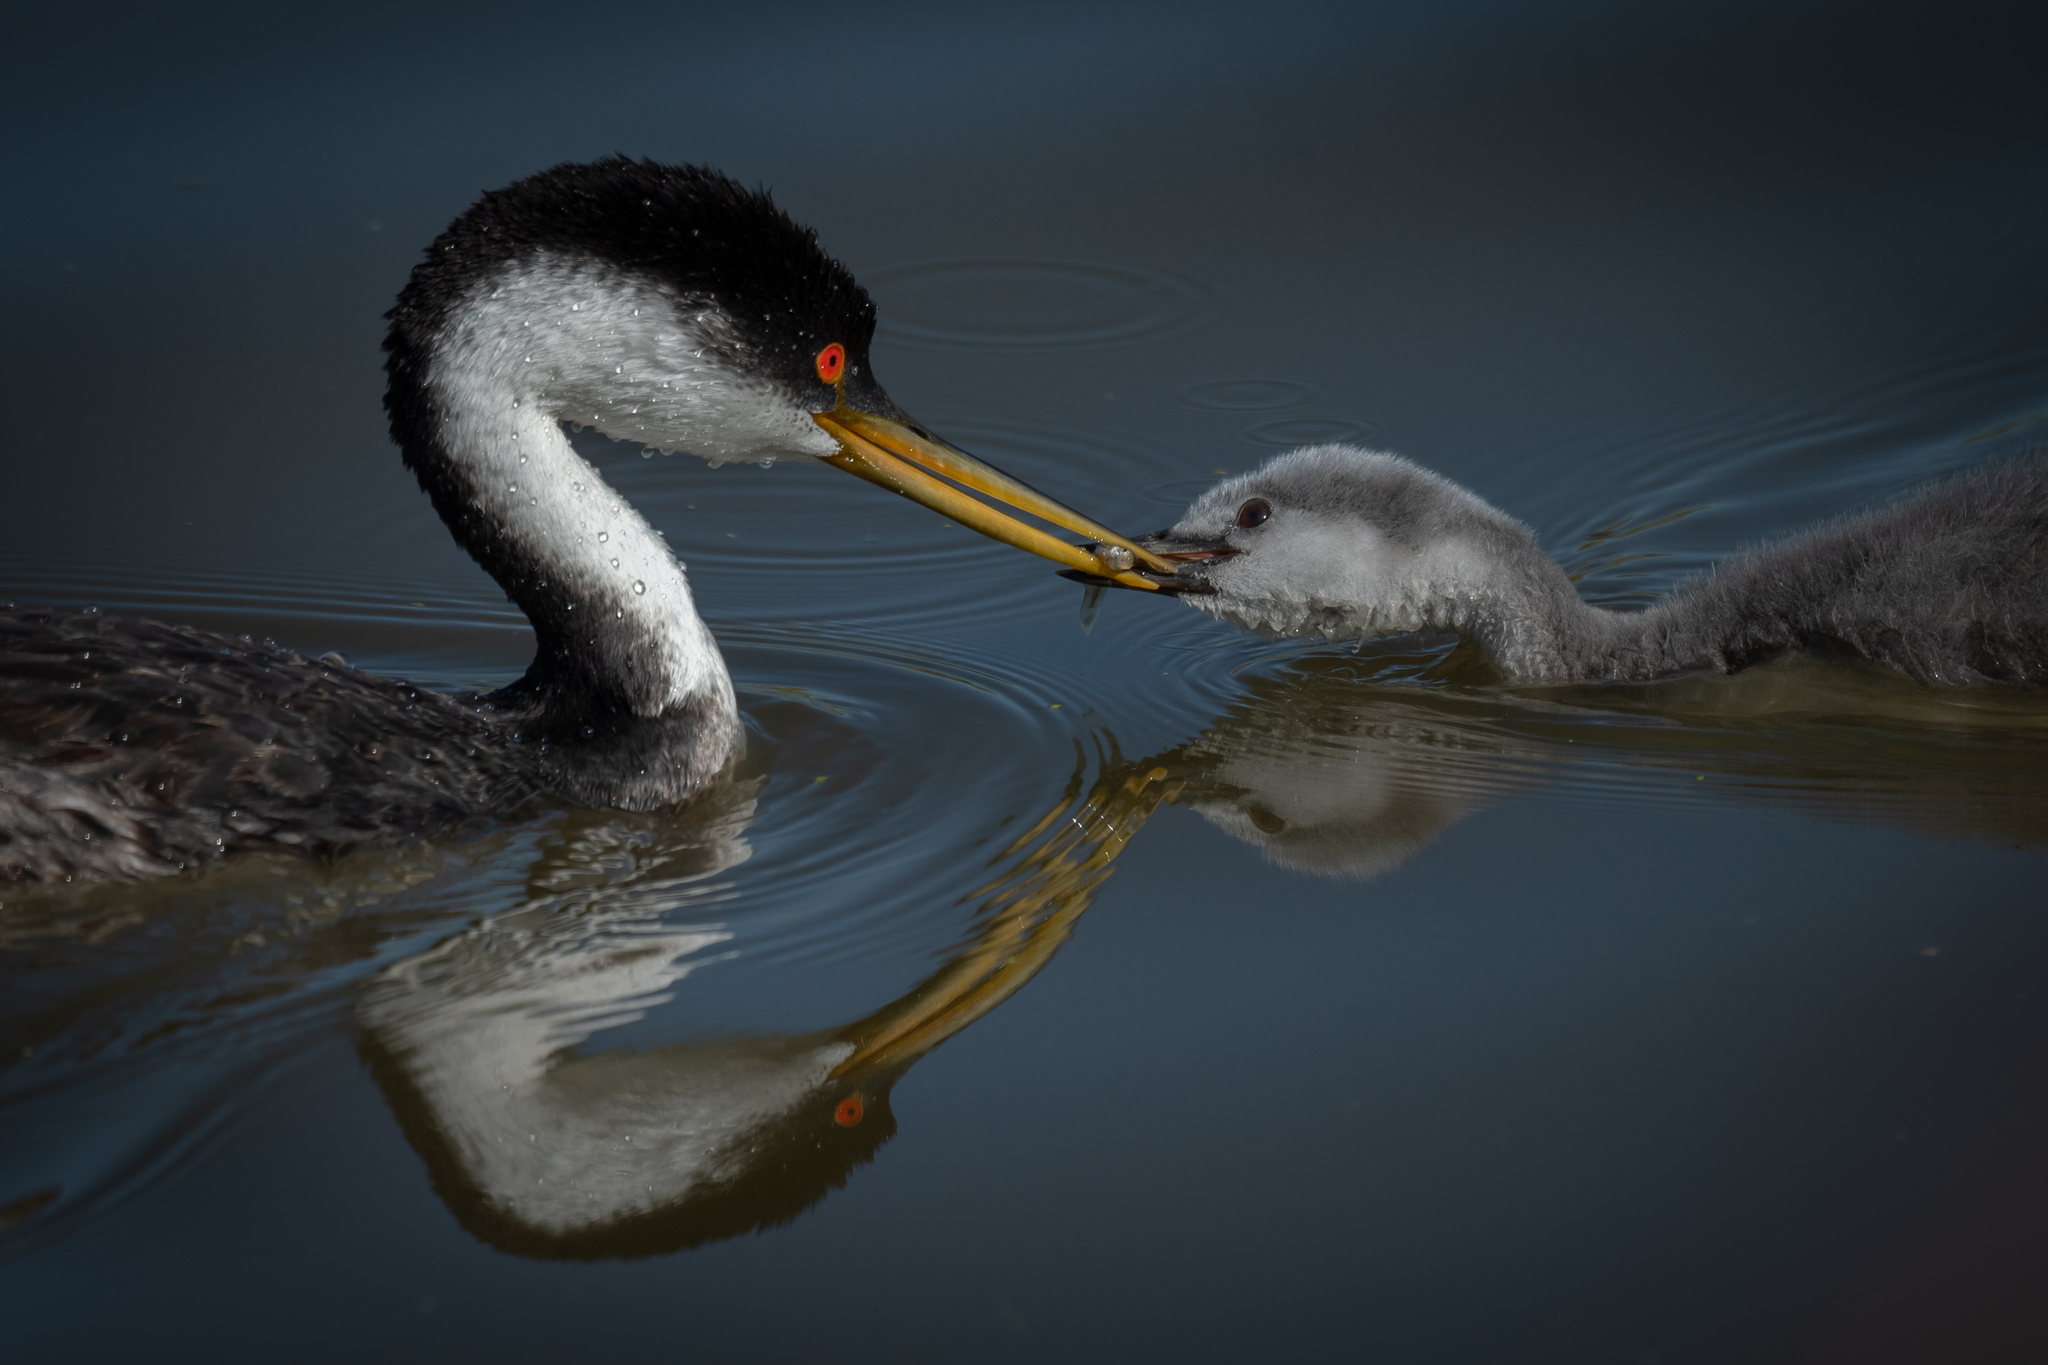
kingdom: Animalia
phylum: Chordata
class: Aves
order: Podicipediformes
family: Podicipedidae
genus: Aechmophorus
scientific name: Aechmophorus occidentalis
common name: Western grebe
